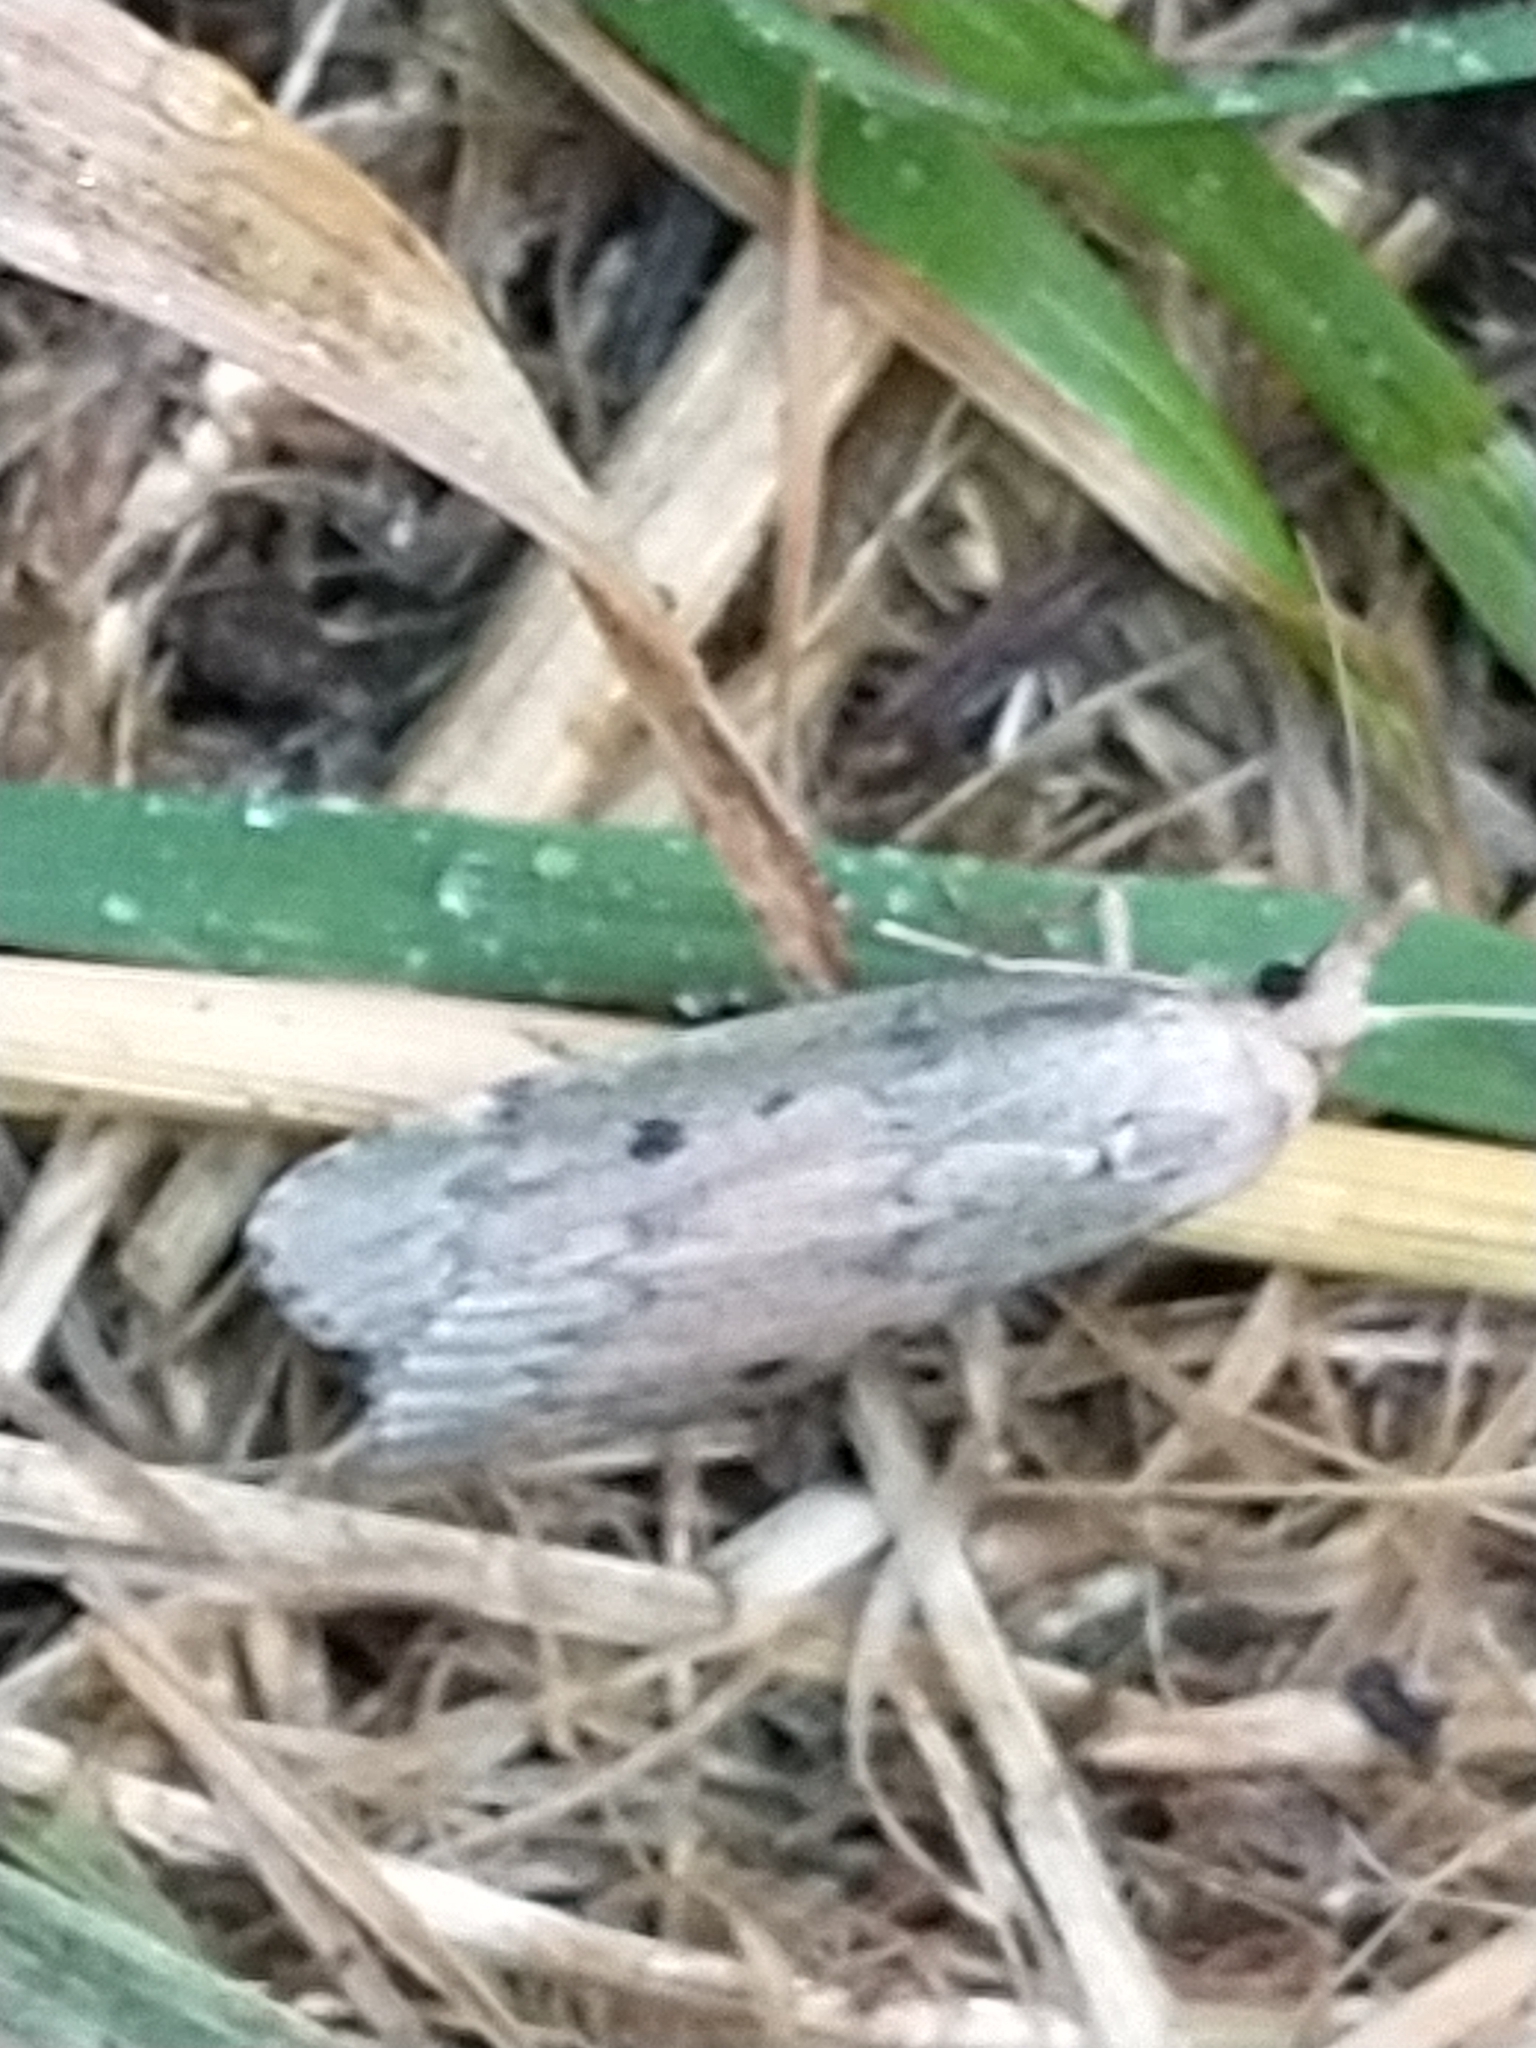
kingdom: Animalia
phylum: Arthropoda
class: Insecta
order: Lepidoptera
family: Pyralidae
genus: Aphomia
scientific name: Aphomia sociella
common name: Bee moth
